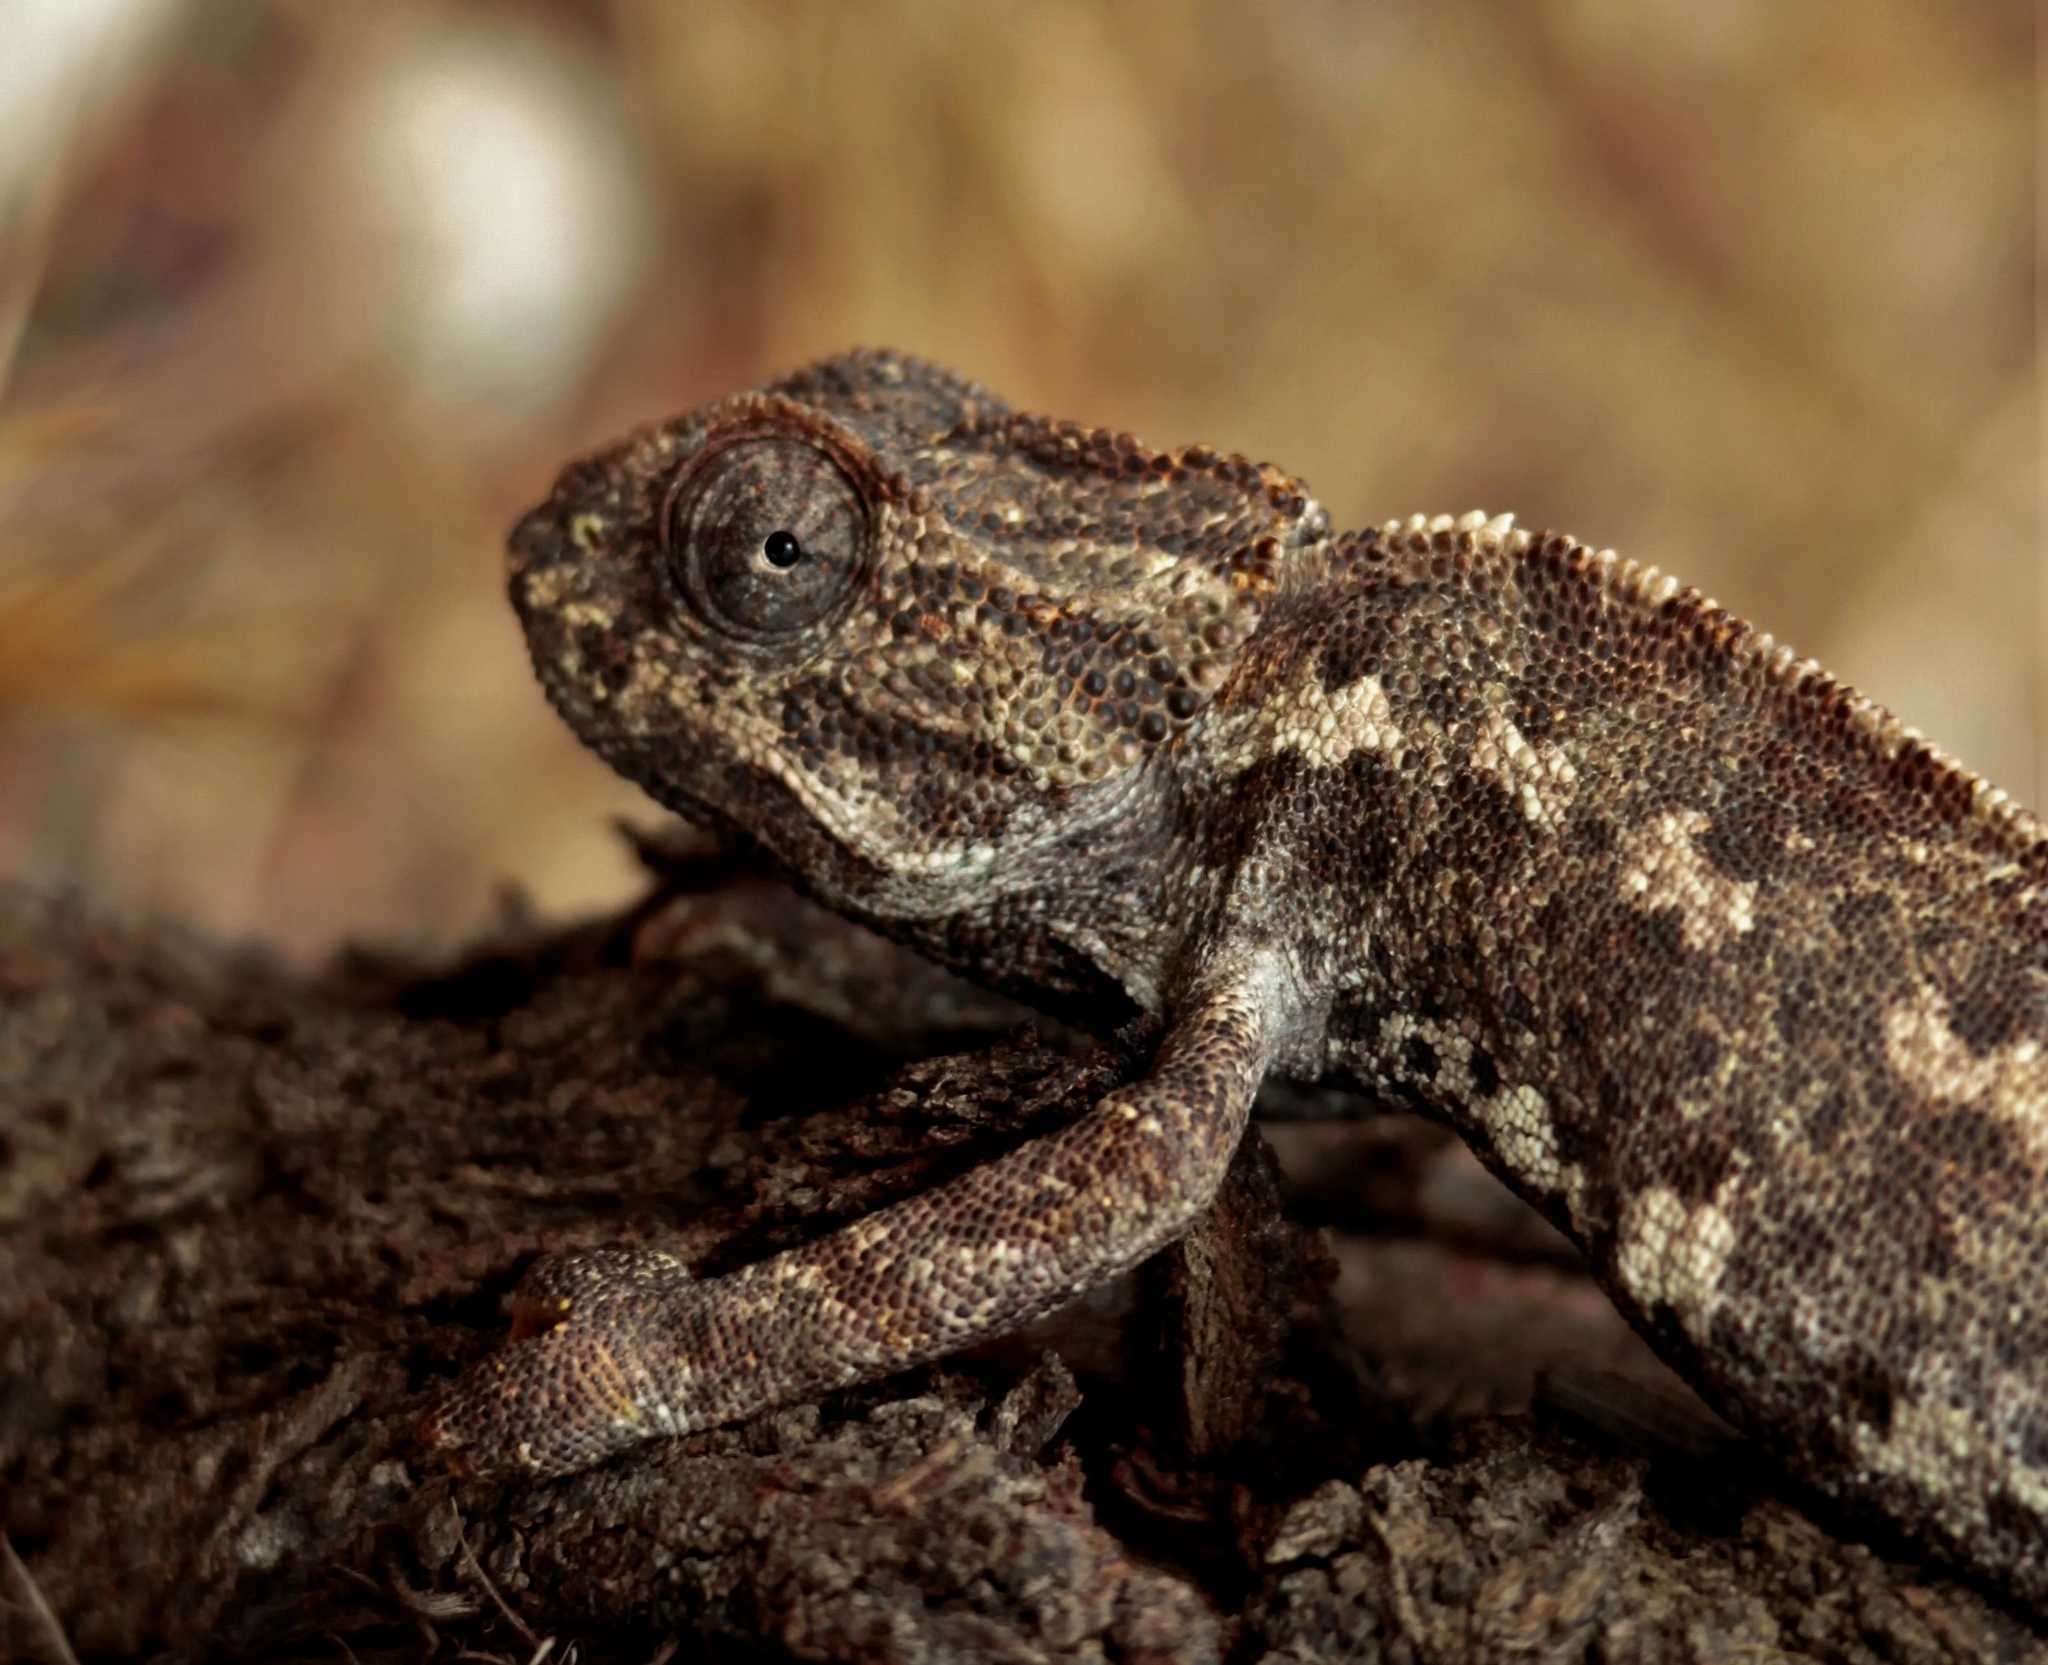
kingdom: Animalia
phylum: Chordata
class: Squamata
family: Chamaeleonidae
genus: Chamaeleo
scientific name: Chamaeleo chamaeleon
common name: Mediterranean chameleon
